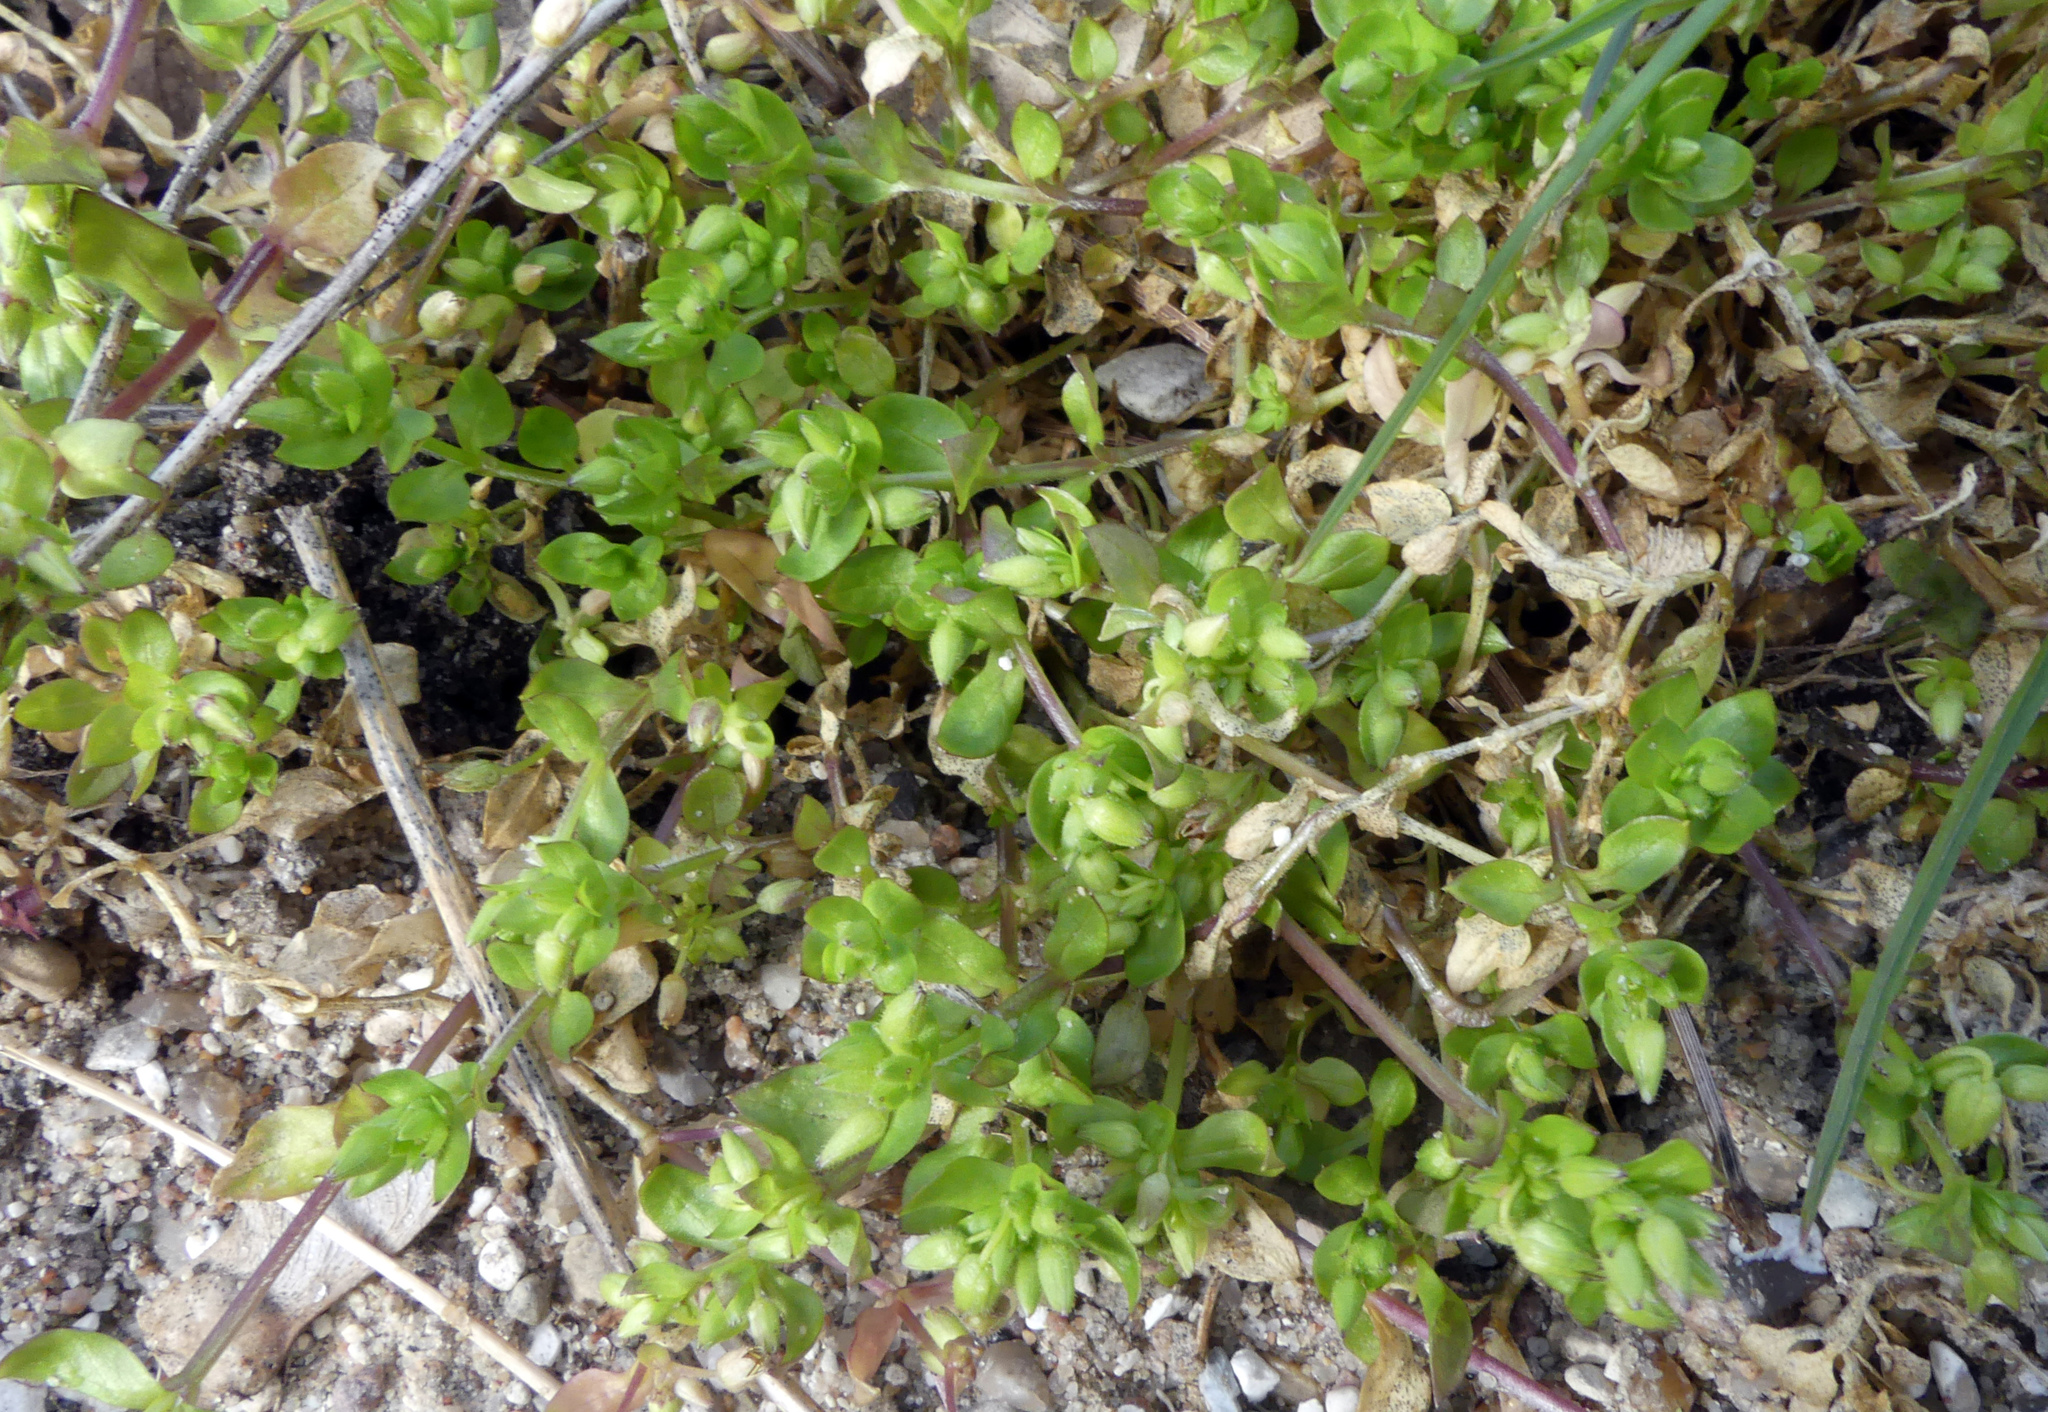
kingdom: Plantae
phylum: Tracheophyta
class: Magnoliopsida
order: Caryophyllales
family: Caryophyllaceae
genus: Stellaria
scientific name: Stellaria media
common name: Common chickweed
